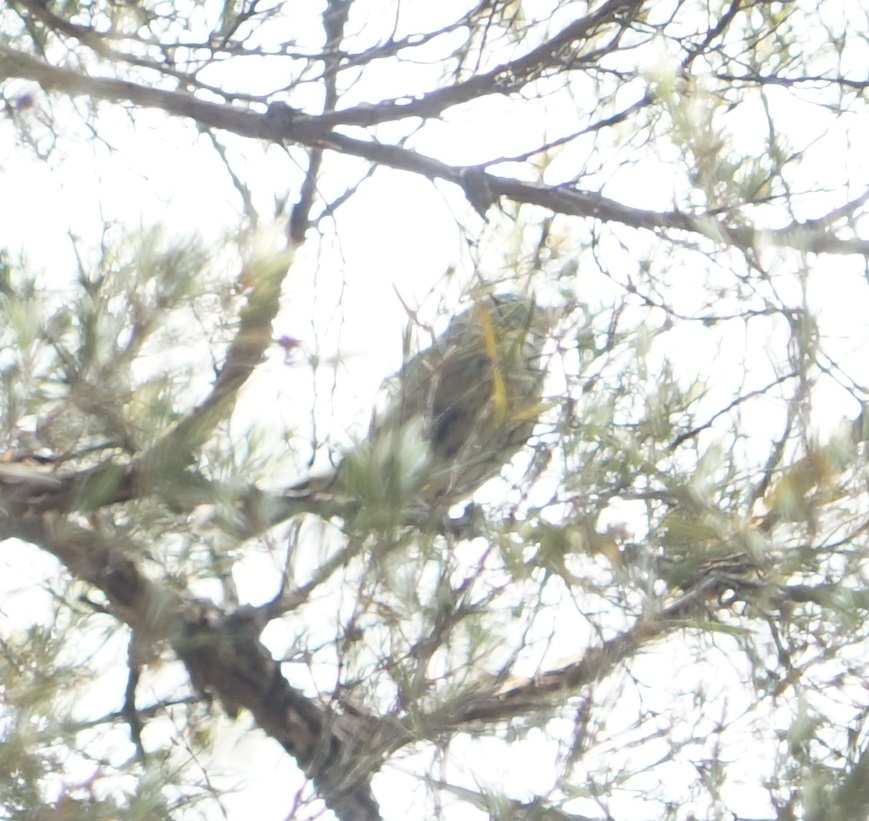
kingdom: Animalia
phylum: Chordata
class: Aves
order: Passeriformes
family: Acanthizidae
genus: Acanthiza
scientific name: Acanthiza pusilla
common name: Brown thornbill
